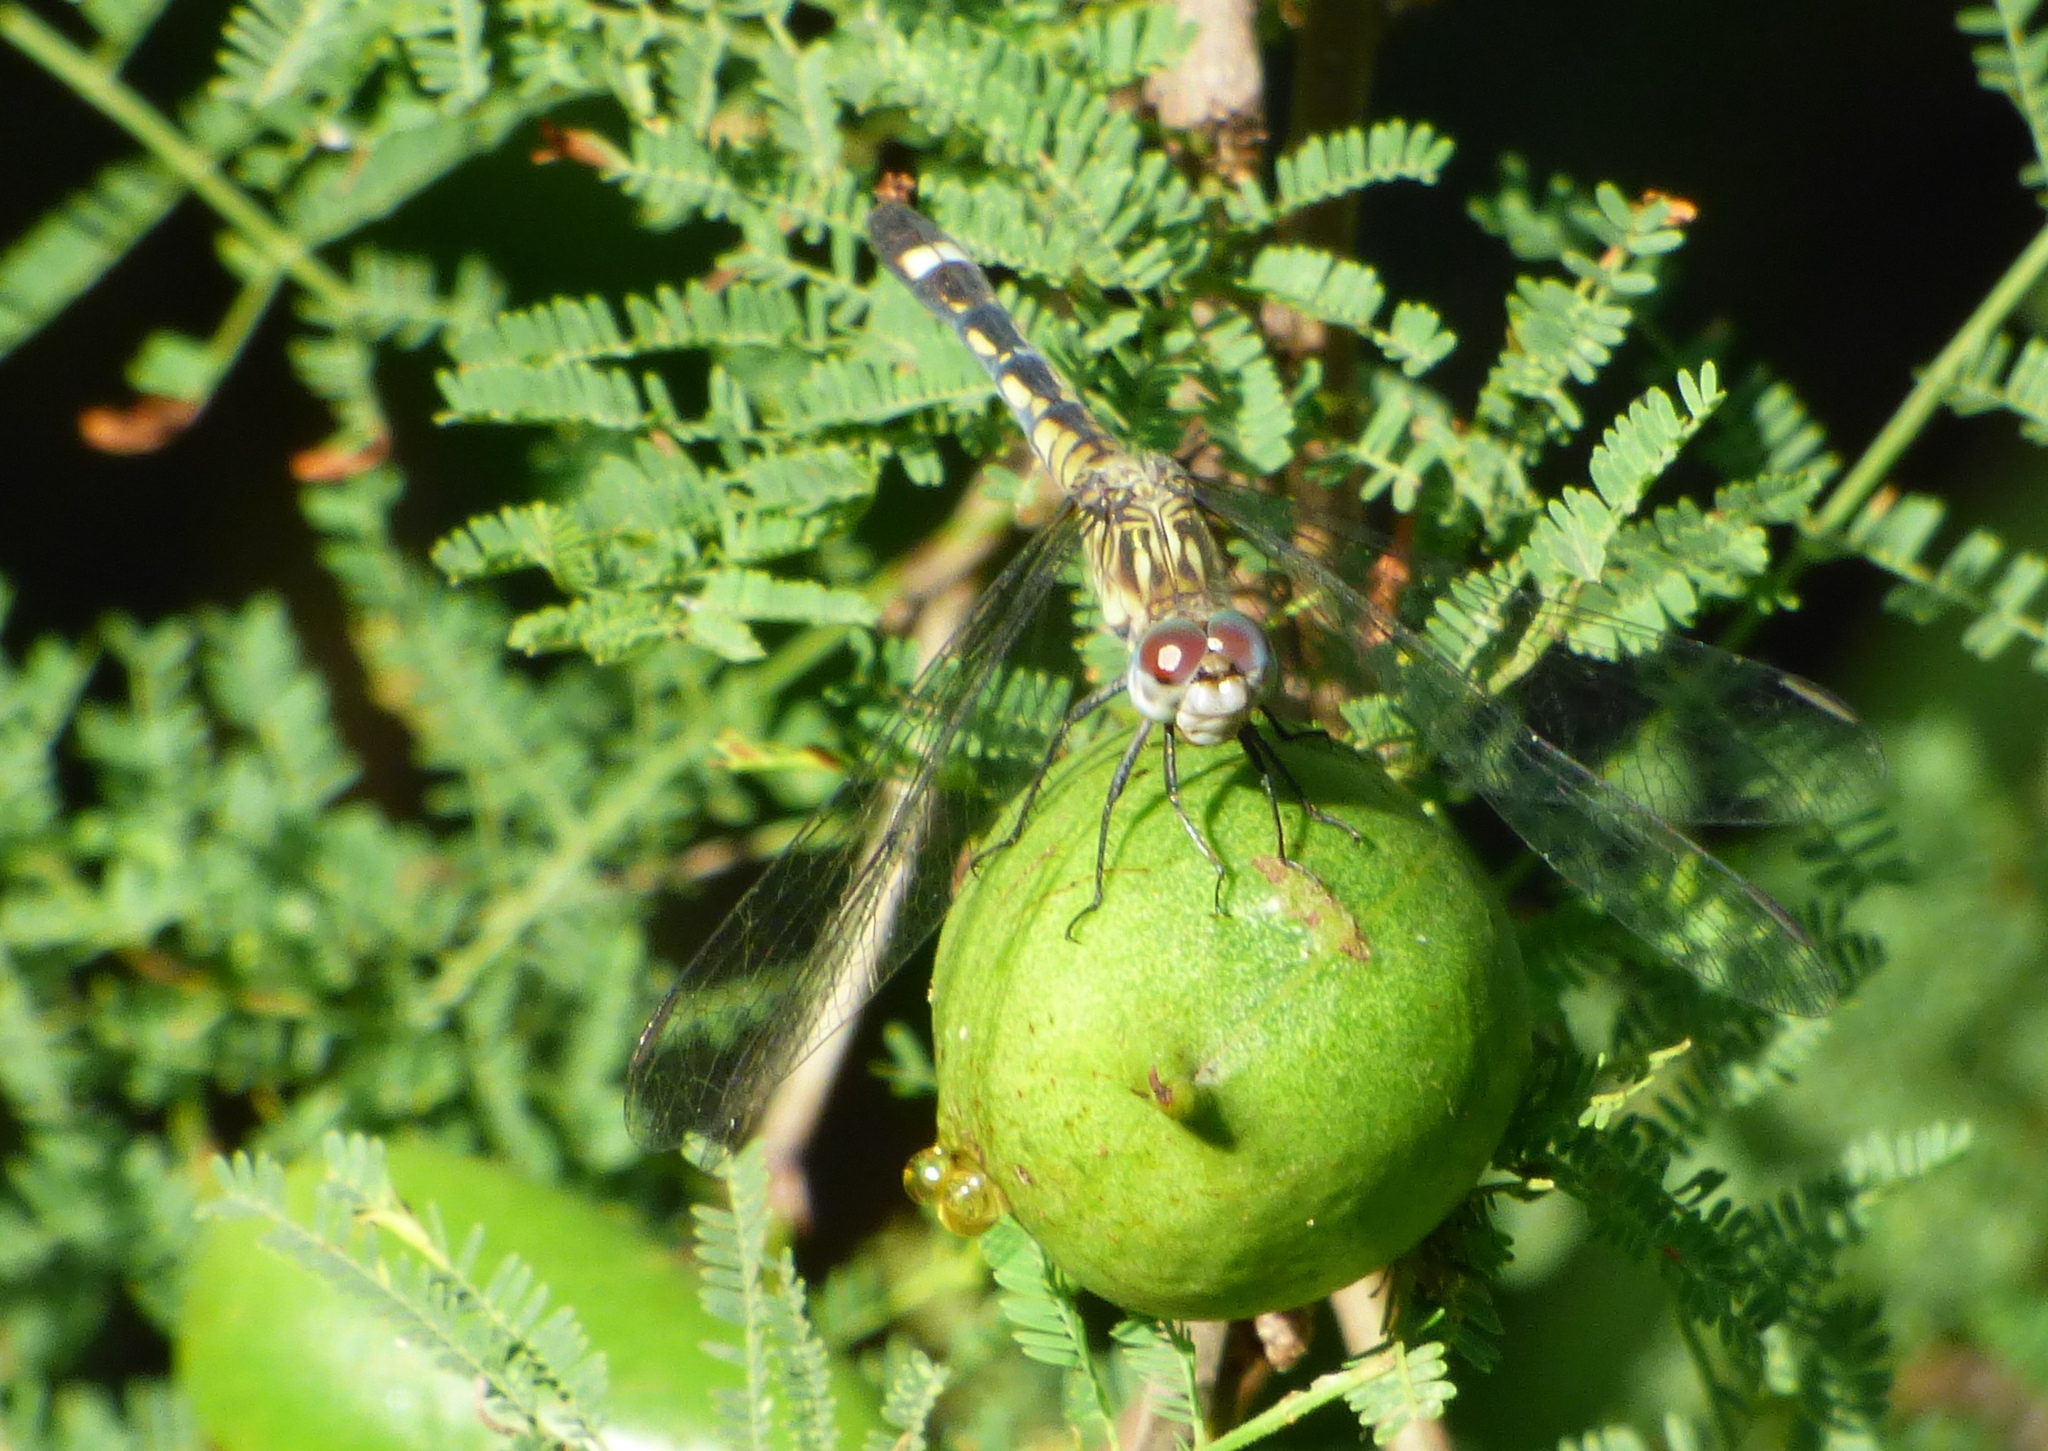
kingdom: Animalia
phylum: Arthropoda
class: Insecta
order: Odonata
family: Libellulidae
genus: Micrathyria
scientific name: Micrathyria longifasciata
